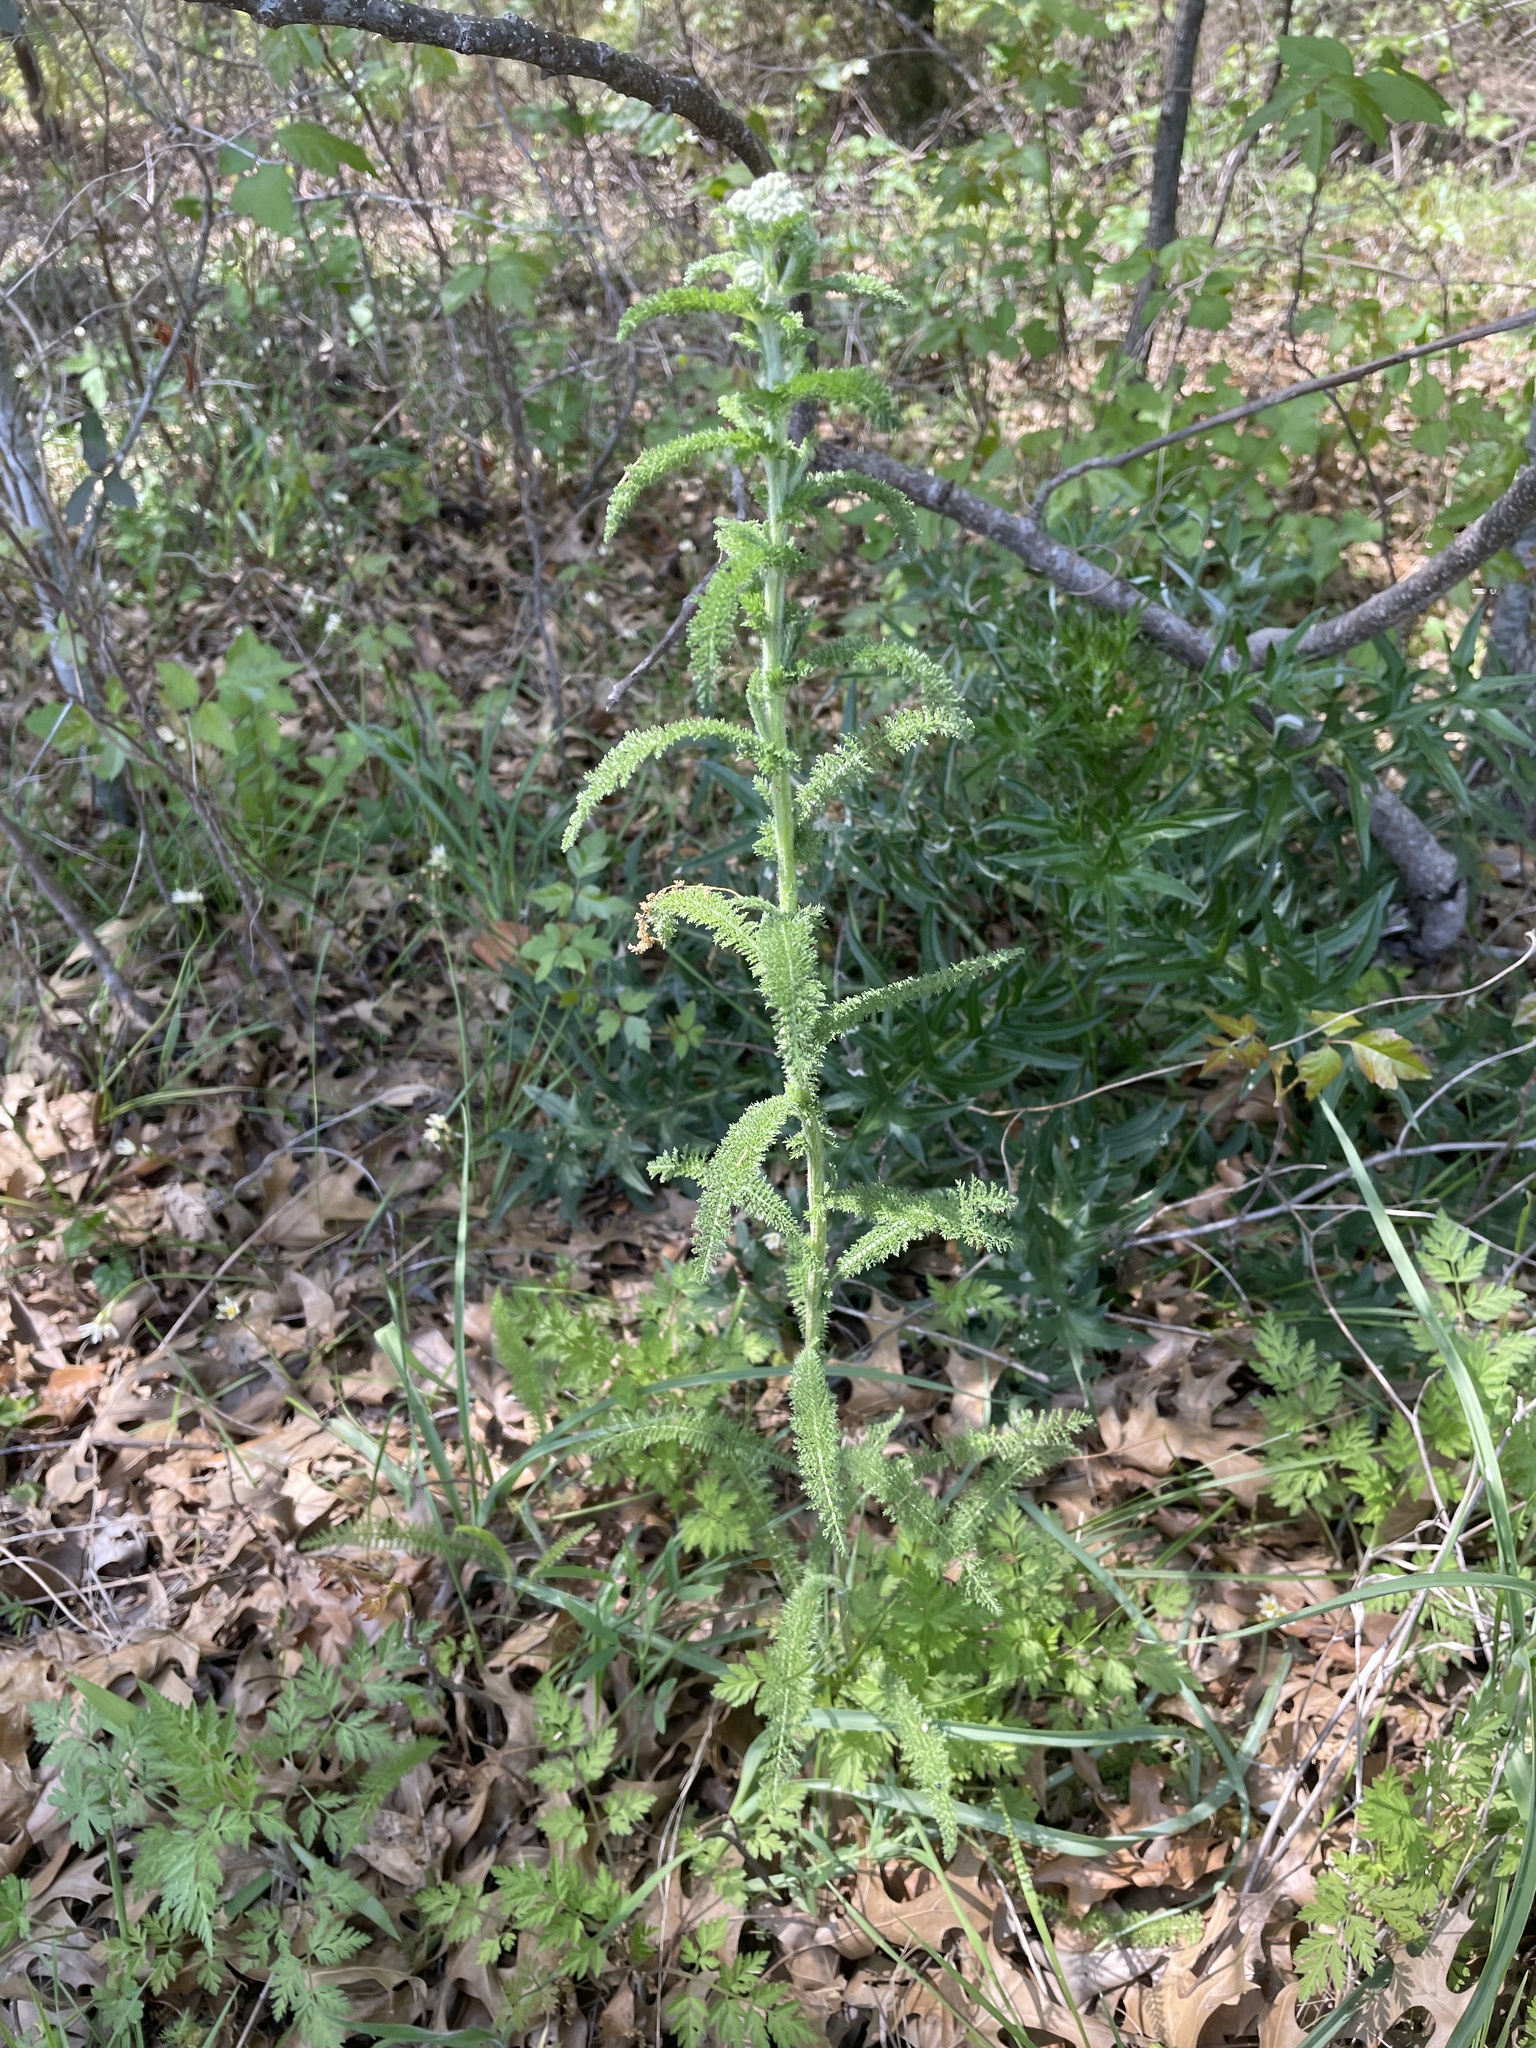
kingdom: Plantae
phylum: Tracheophyta
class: Magnoliopsida
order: Asterales
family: Asteraceae
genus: Achillea
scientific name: Achillea millefolium
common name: Yarrow
